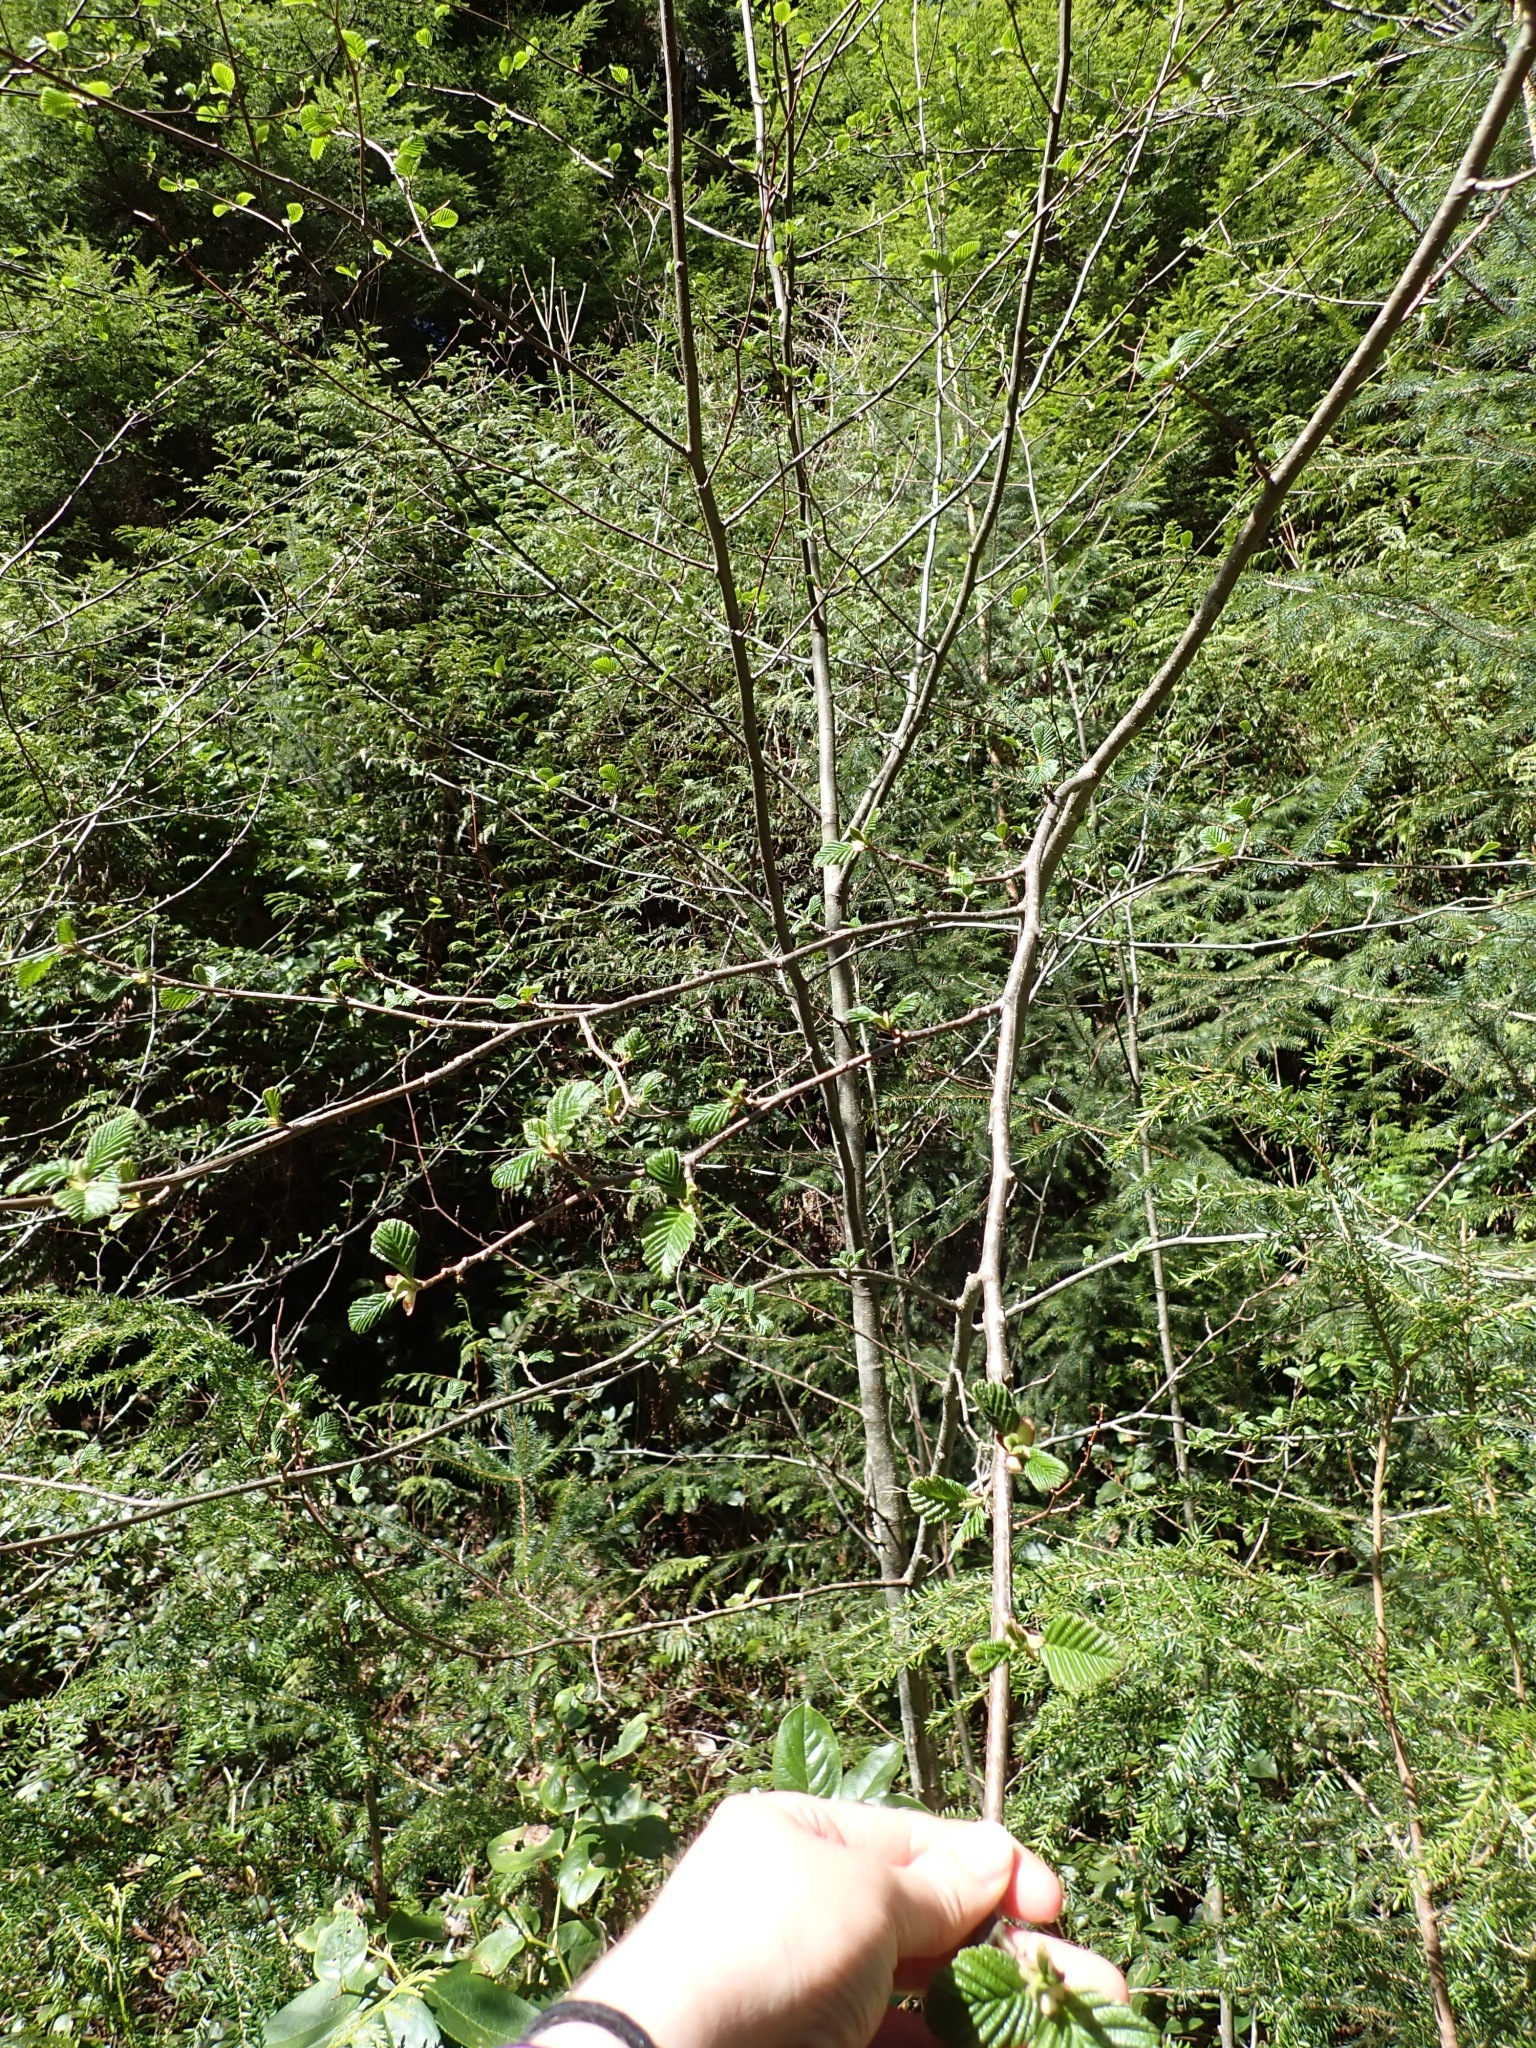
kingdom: Plantae
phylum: Tracheophyta
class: Magnoliopsida
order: Fagales
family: Betulaceae
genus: Alnus
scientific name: Alnus rubra
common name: Red alder
